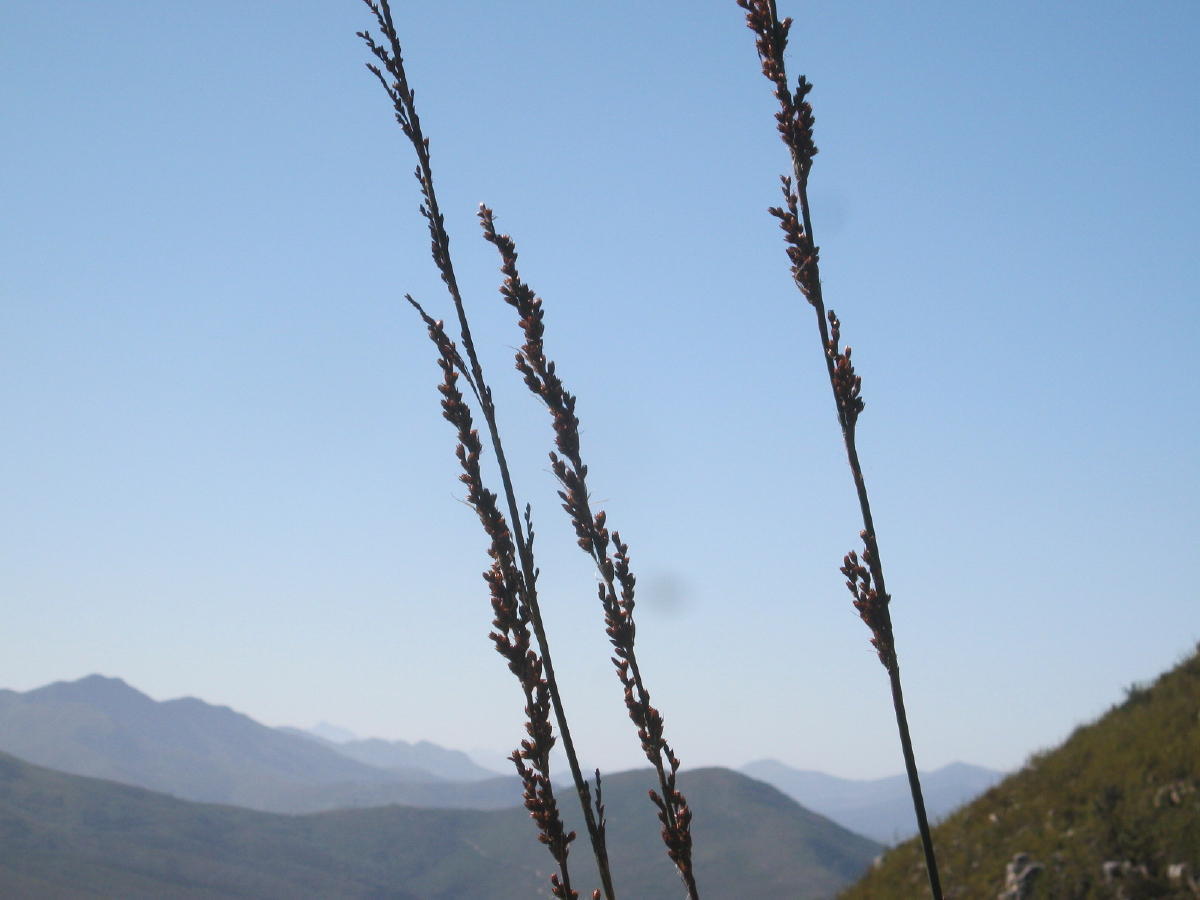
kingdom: Plantae
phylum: Tracheophyta
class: Liliopsida
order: Poales
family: Restionaceae
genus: Rhodocoma
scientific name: Rhodocoma gigantea
